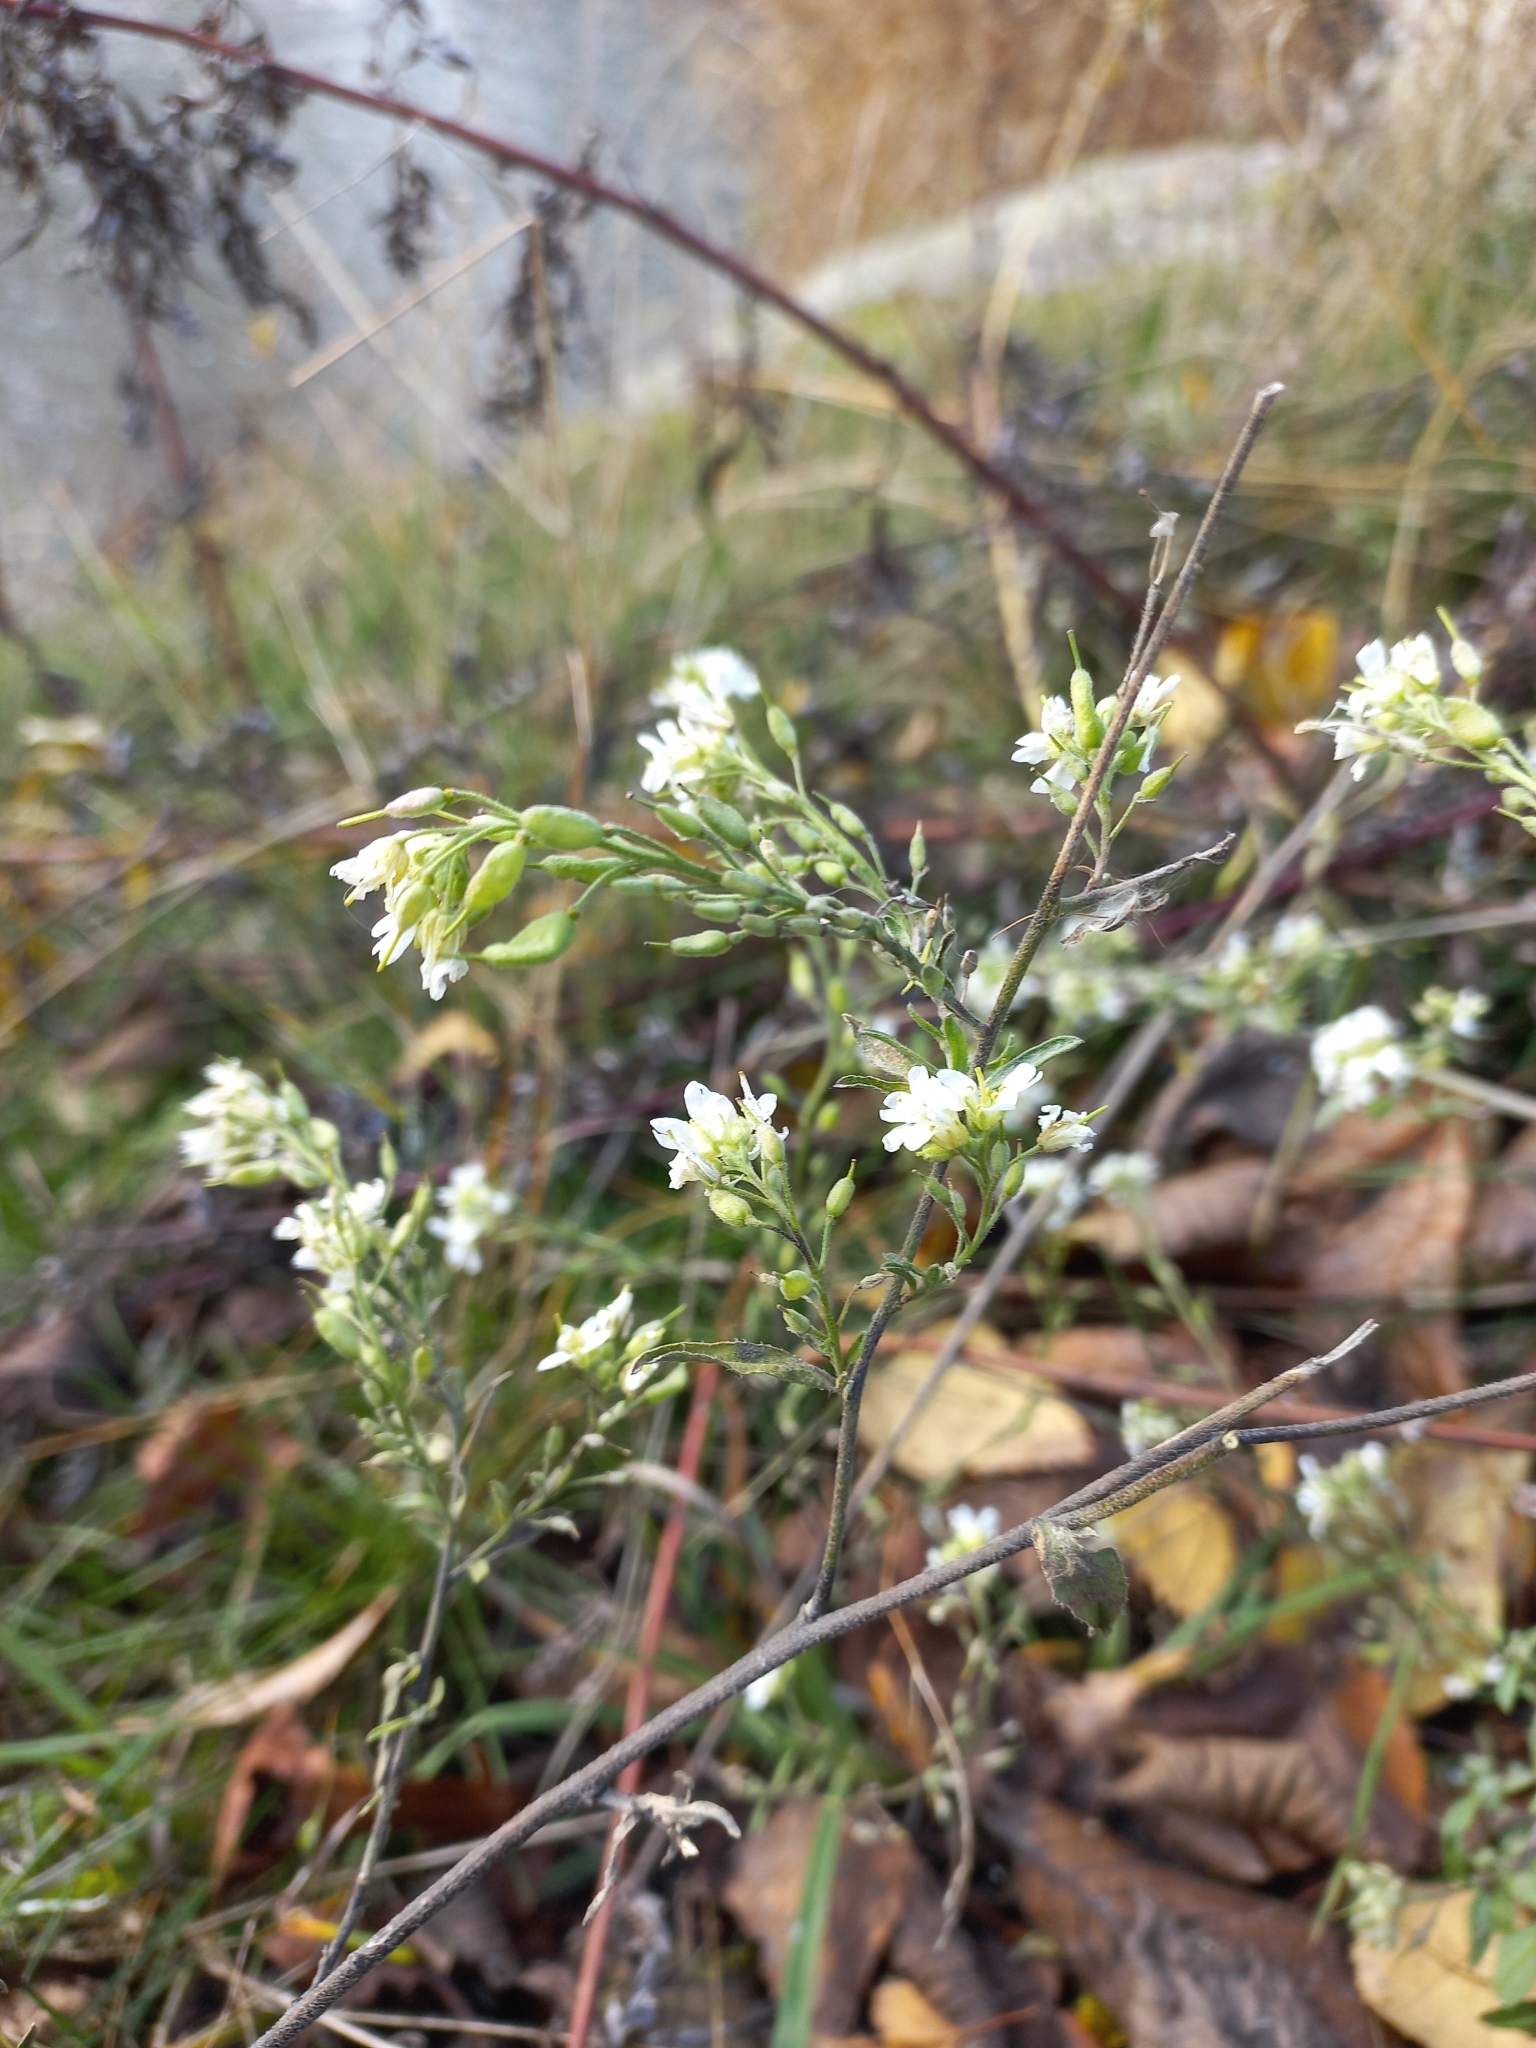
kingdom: Plantae
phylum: Tracheophyta
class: Magnoliopsida
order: Brassicales
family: Brassicaceae
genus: Berteroa
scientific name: Berteroa incana
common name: Hoary alison
